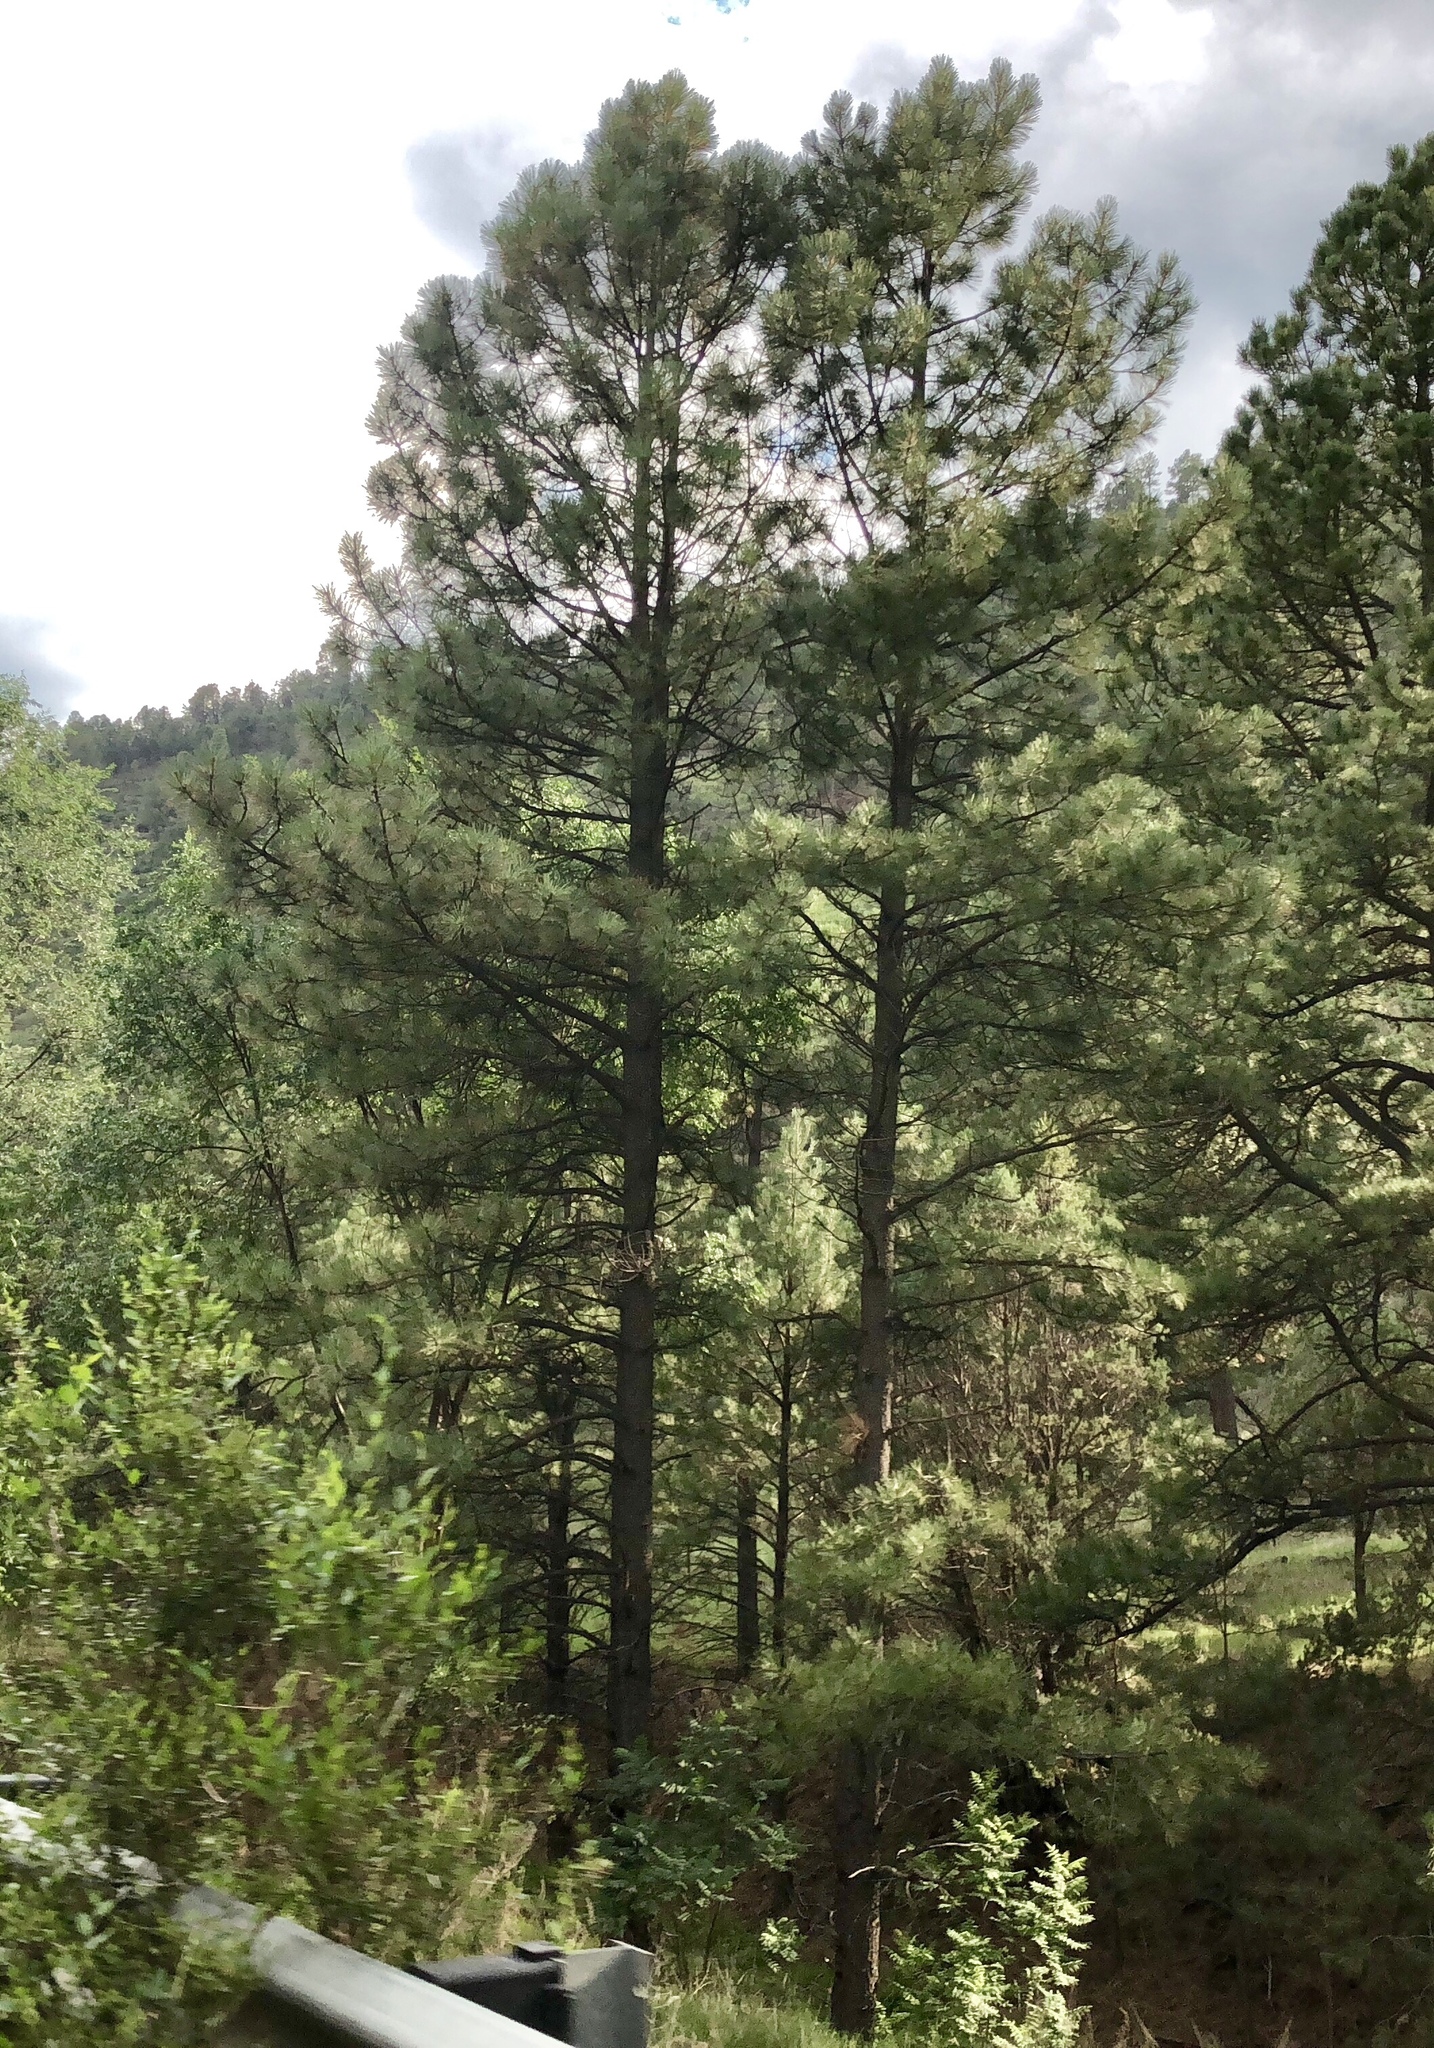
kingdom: Plantae
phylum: Tracheophyta
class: Pinopsida
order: Pinales
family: Pinaceae
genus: Pinus
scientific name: Pinus ponderosa
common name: Western yellow-pine
